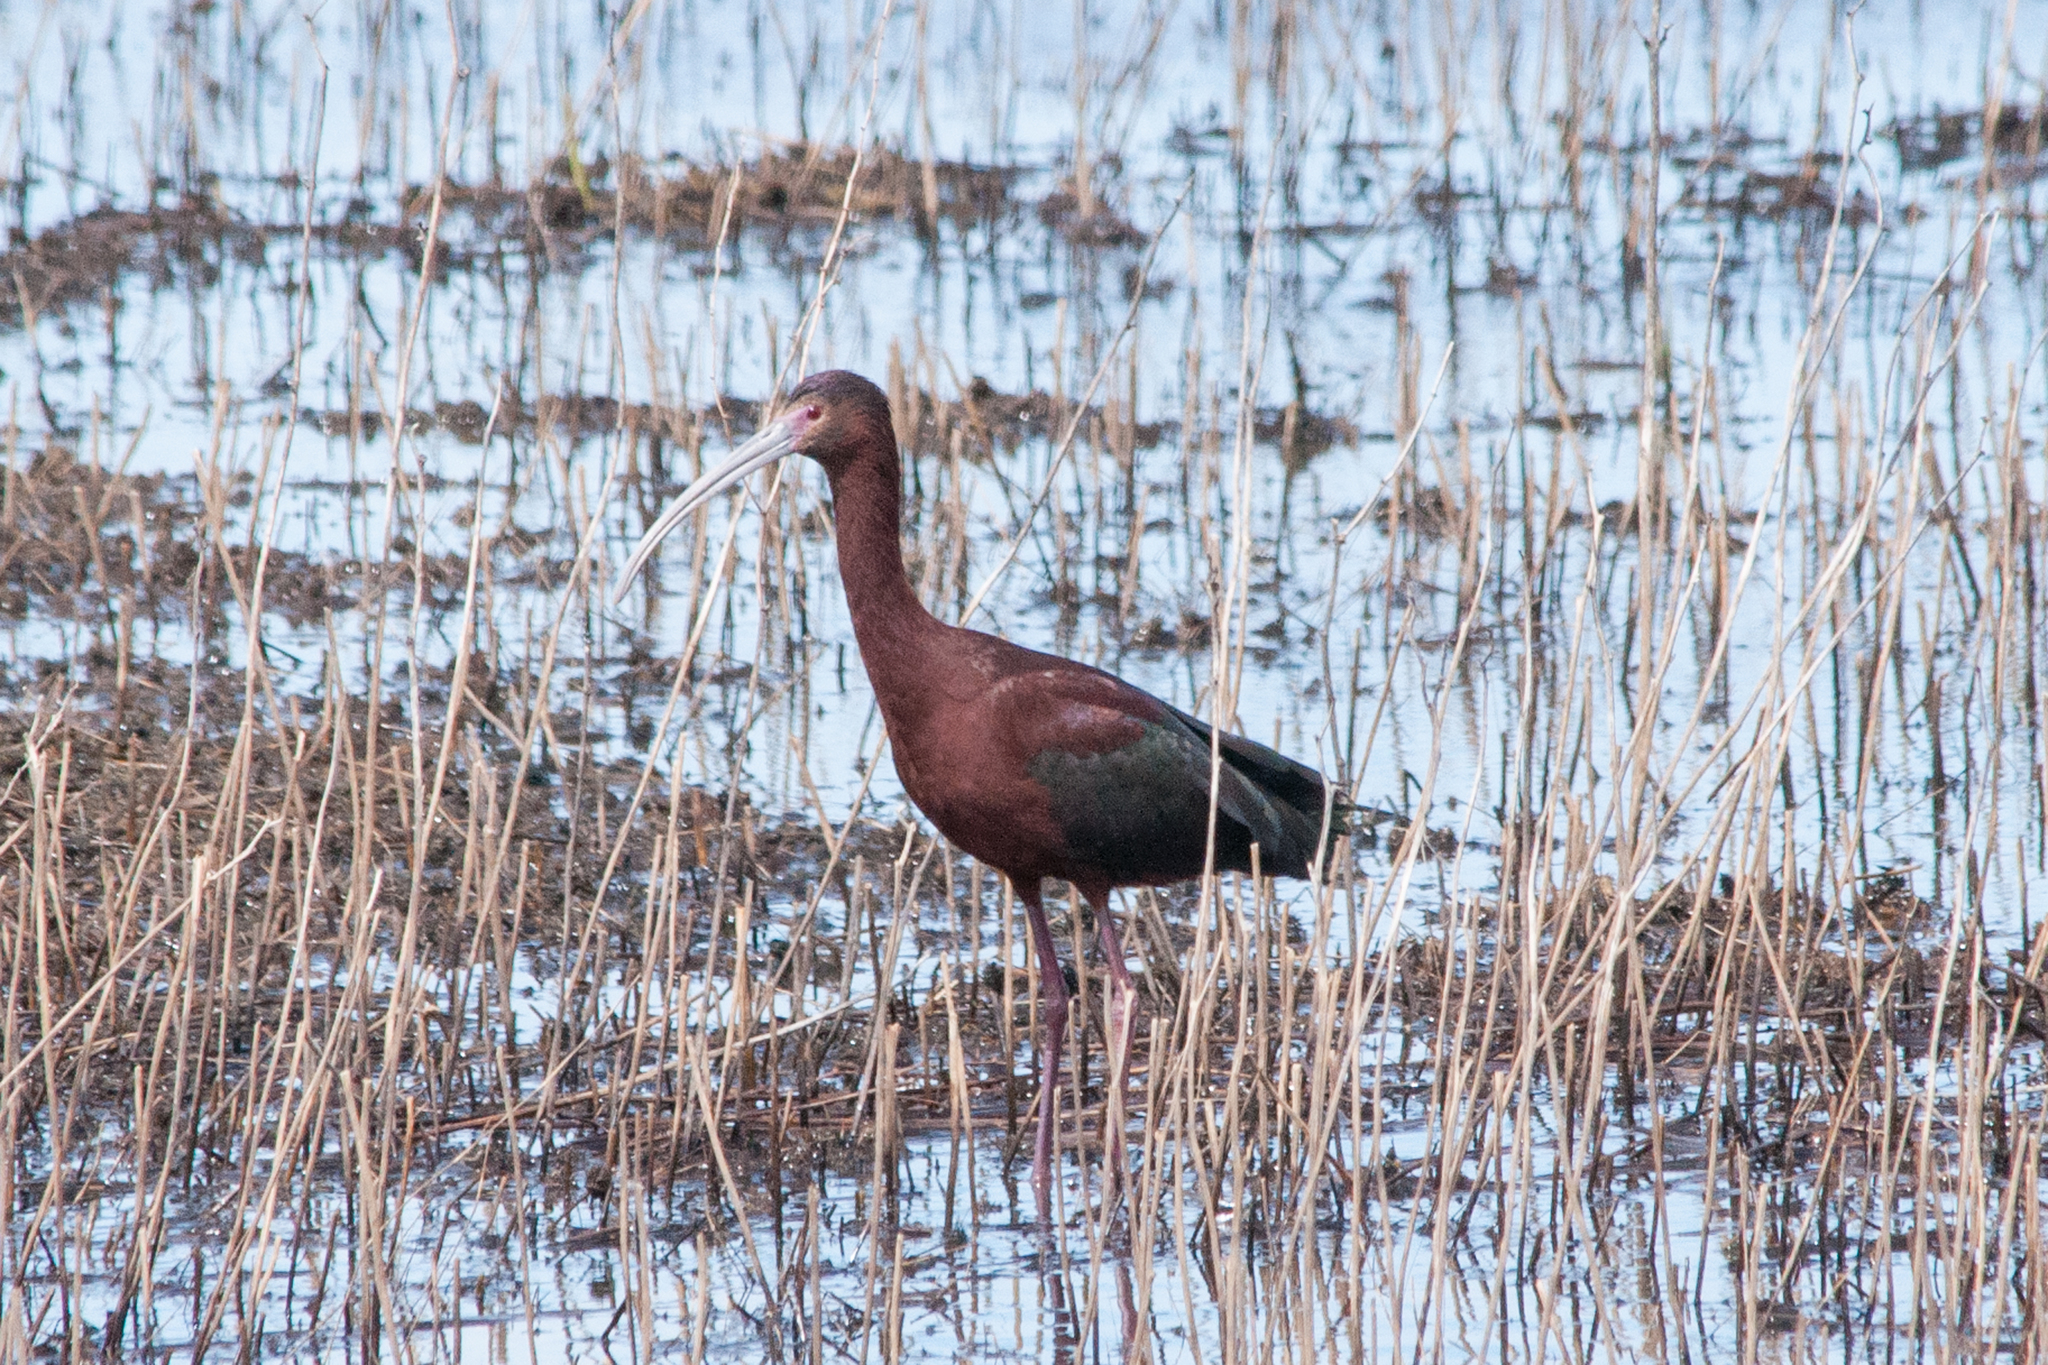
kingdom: Animalia
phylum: Chordata
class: Aves
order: Pelecaniformes
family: Threskiornithidae
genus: Plegadis
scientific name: Plegadis chihi
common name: White-faced ibis
